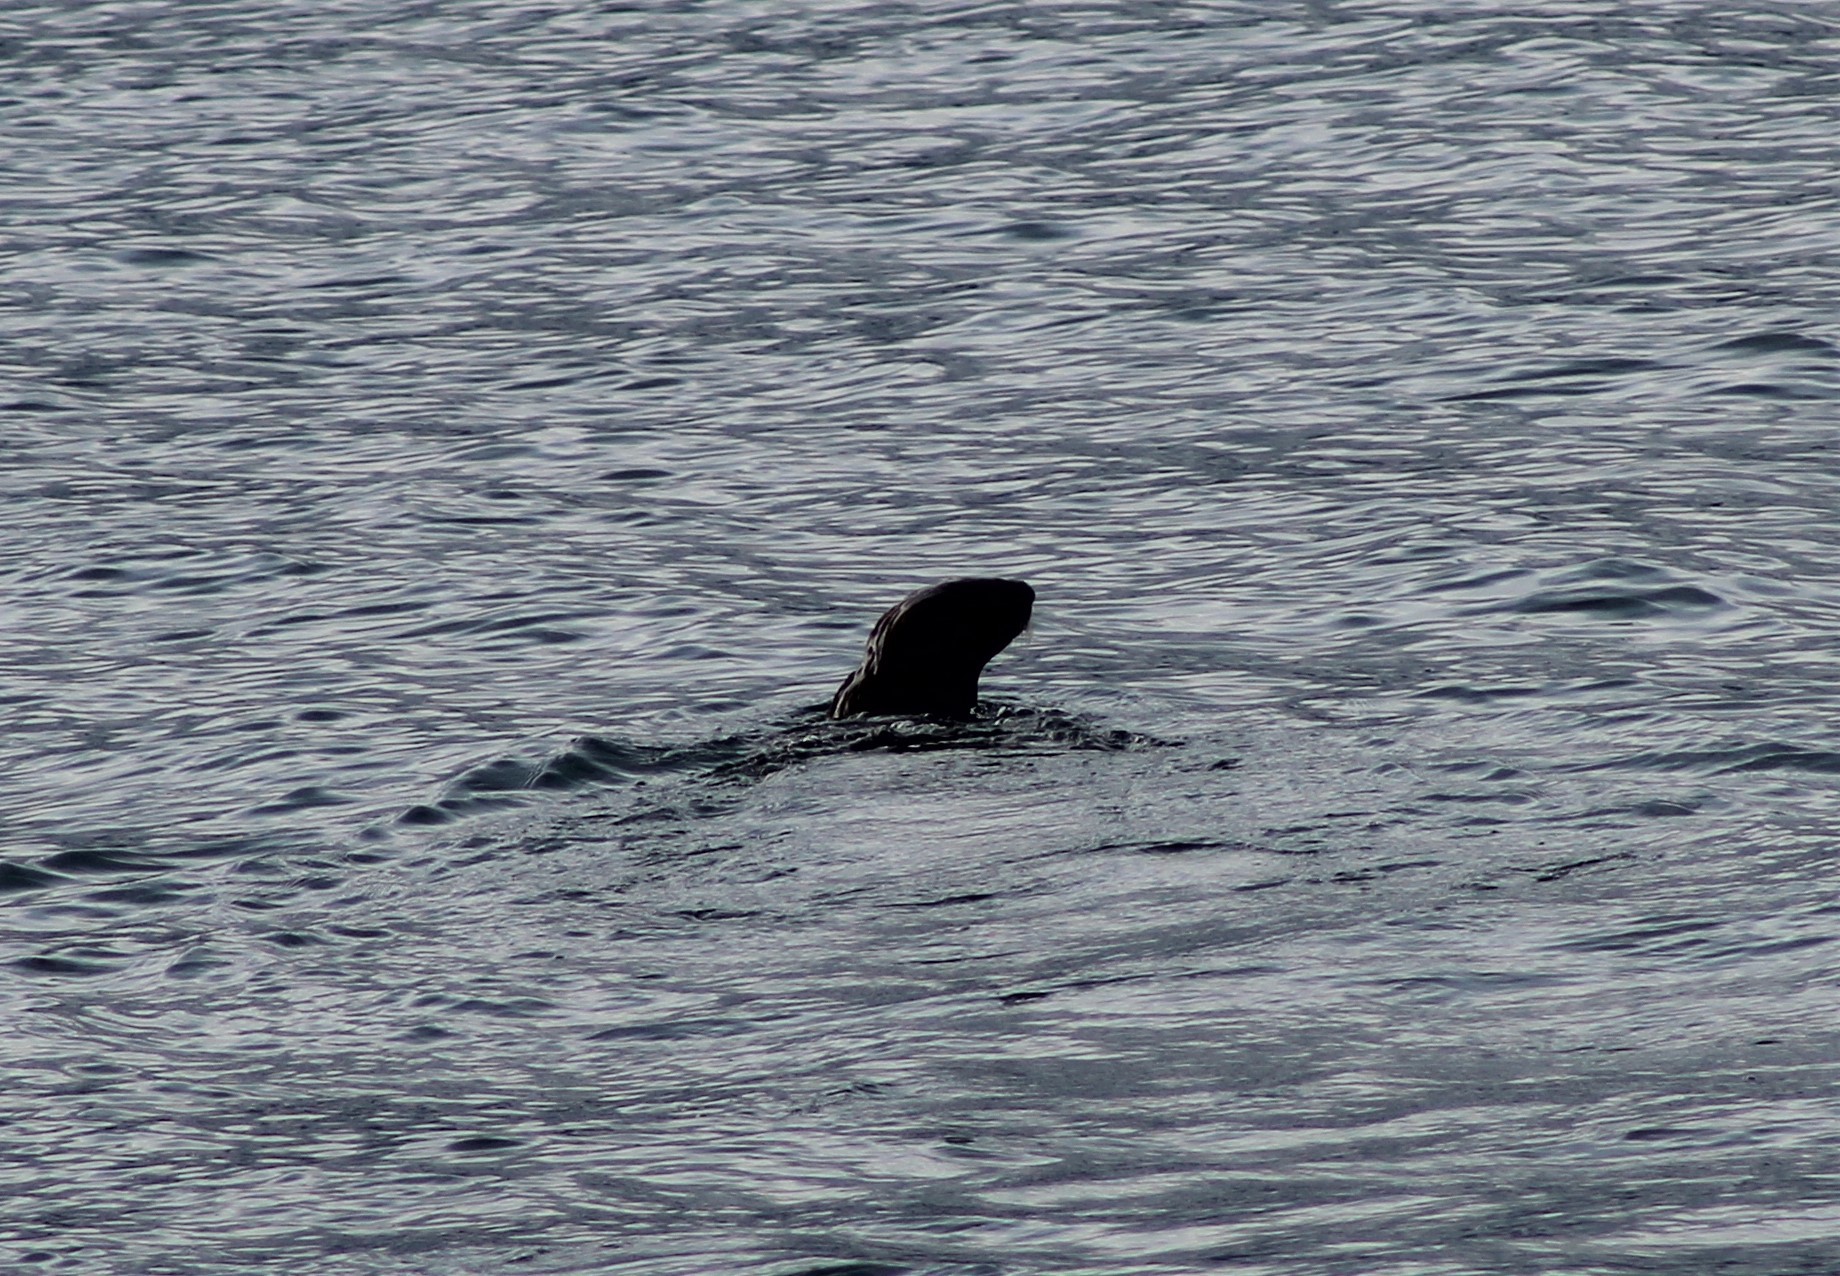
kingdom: Animalia
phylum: Chordata
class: Mammalia
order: Carnivora
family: Mustelidae
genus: Enhydra
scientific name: Enhydra lutris
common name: Sea otter
